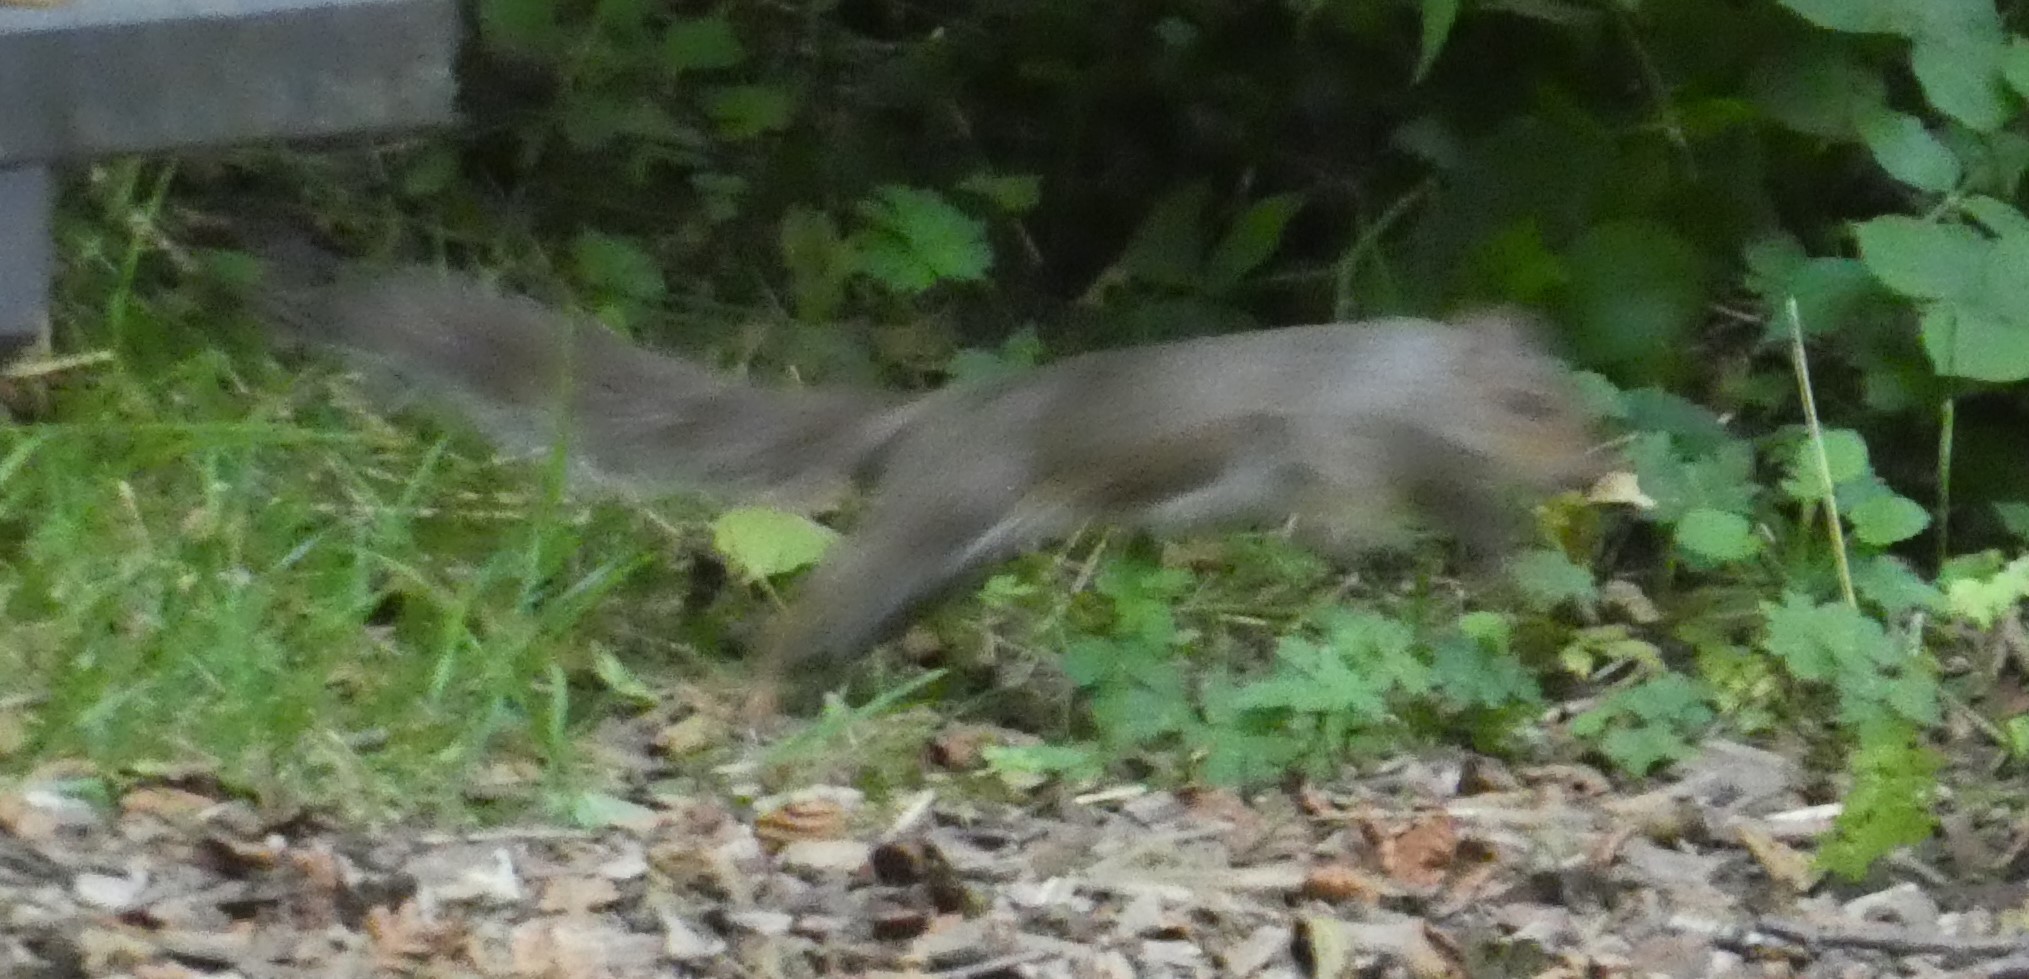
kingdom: Animalia
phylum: Chordata
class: Mammalia
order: Rodentia
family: Sciuridae
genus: Sciurus
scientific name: Sciurus carolinensis
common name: Eastern gray squirrel
